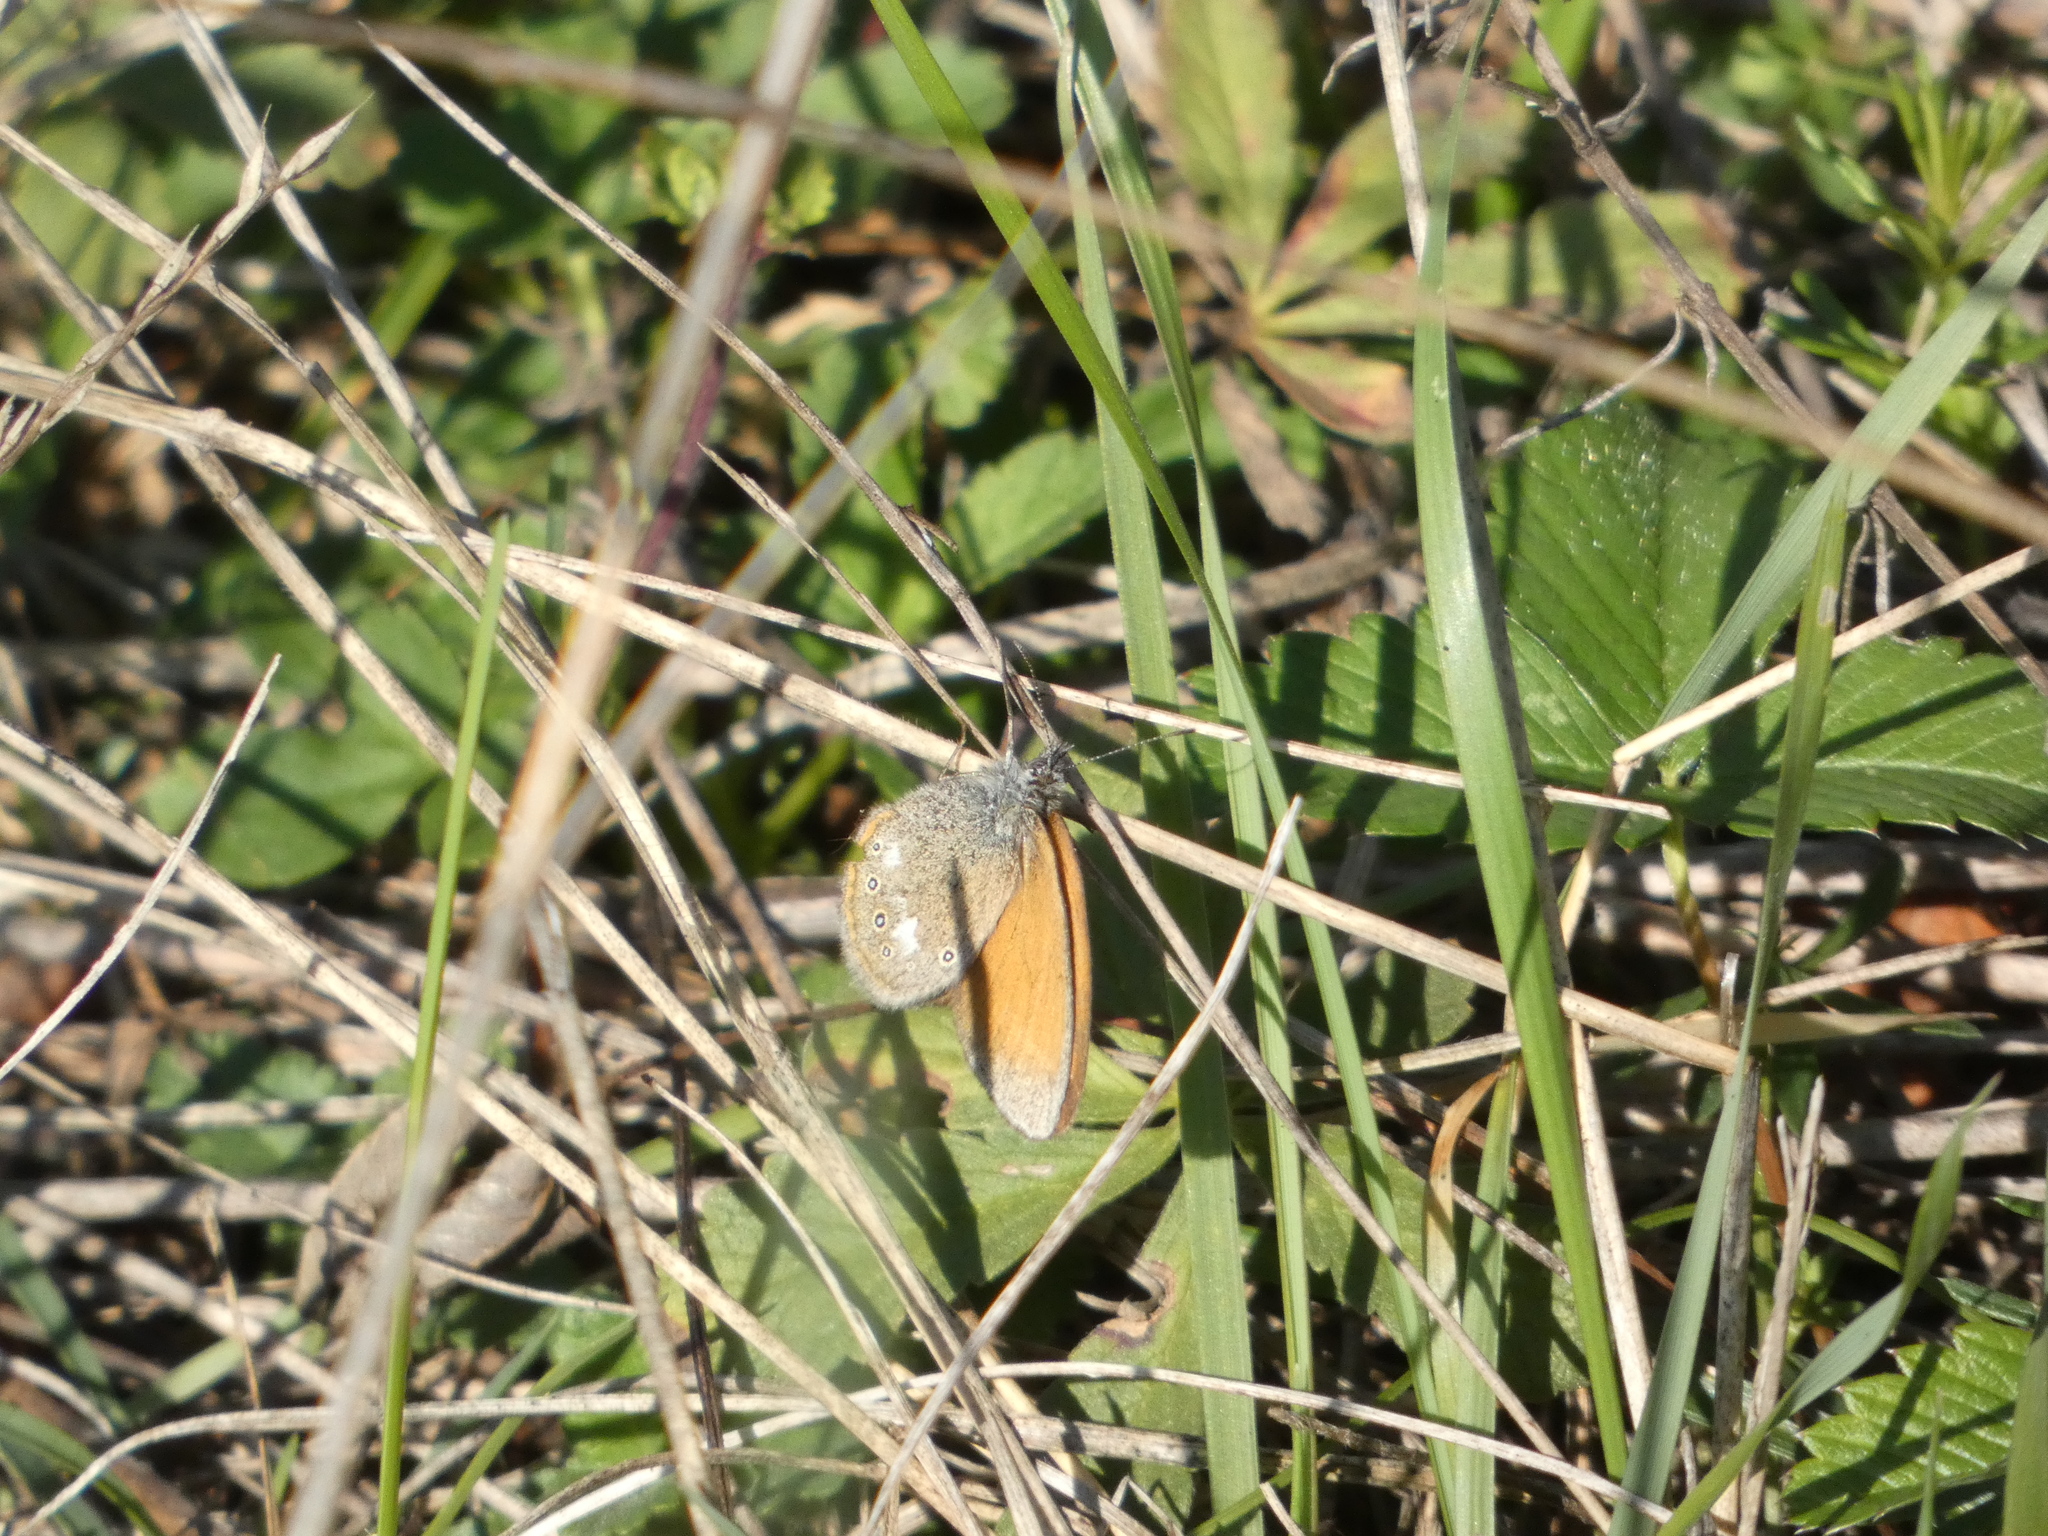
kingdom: Animalia
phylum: Arthropoda
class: Insecta
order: Lepidoptera
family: Nymphalidae
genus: Coenonympha
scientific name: Coenonympha iphis
